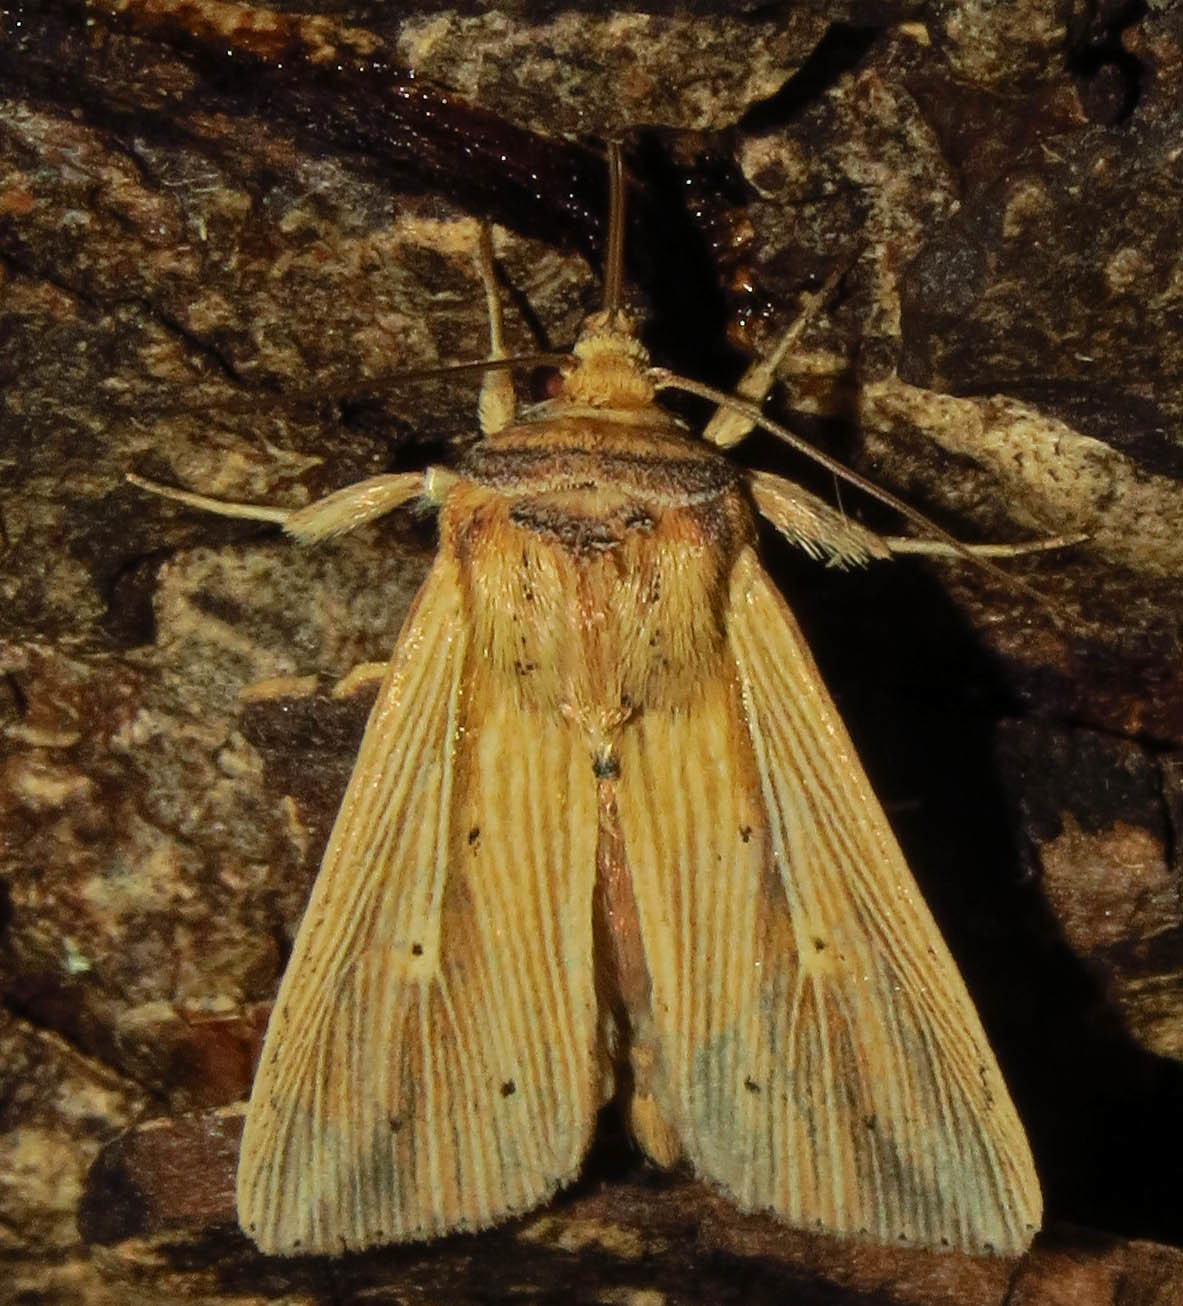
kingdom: Animalia
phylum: Arthropoda
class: Insecta
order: Lepidoptera
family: Noctuidae
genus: Leucania
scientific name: Leucania adjuta
